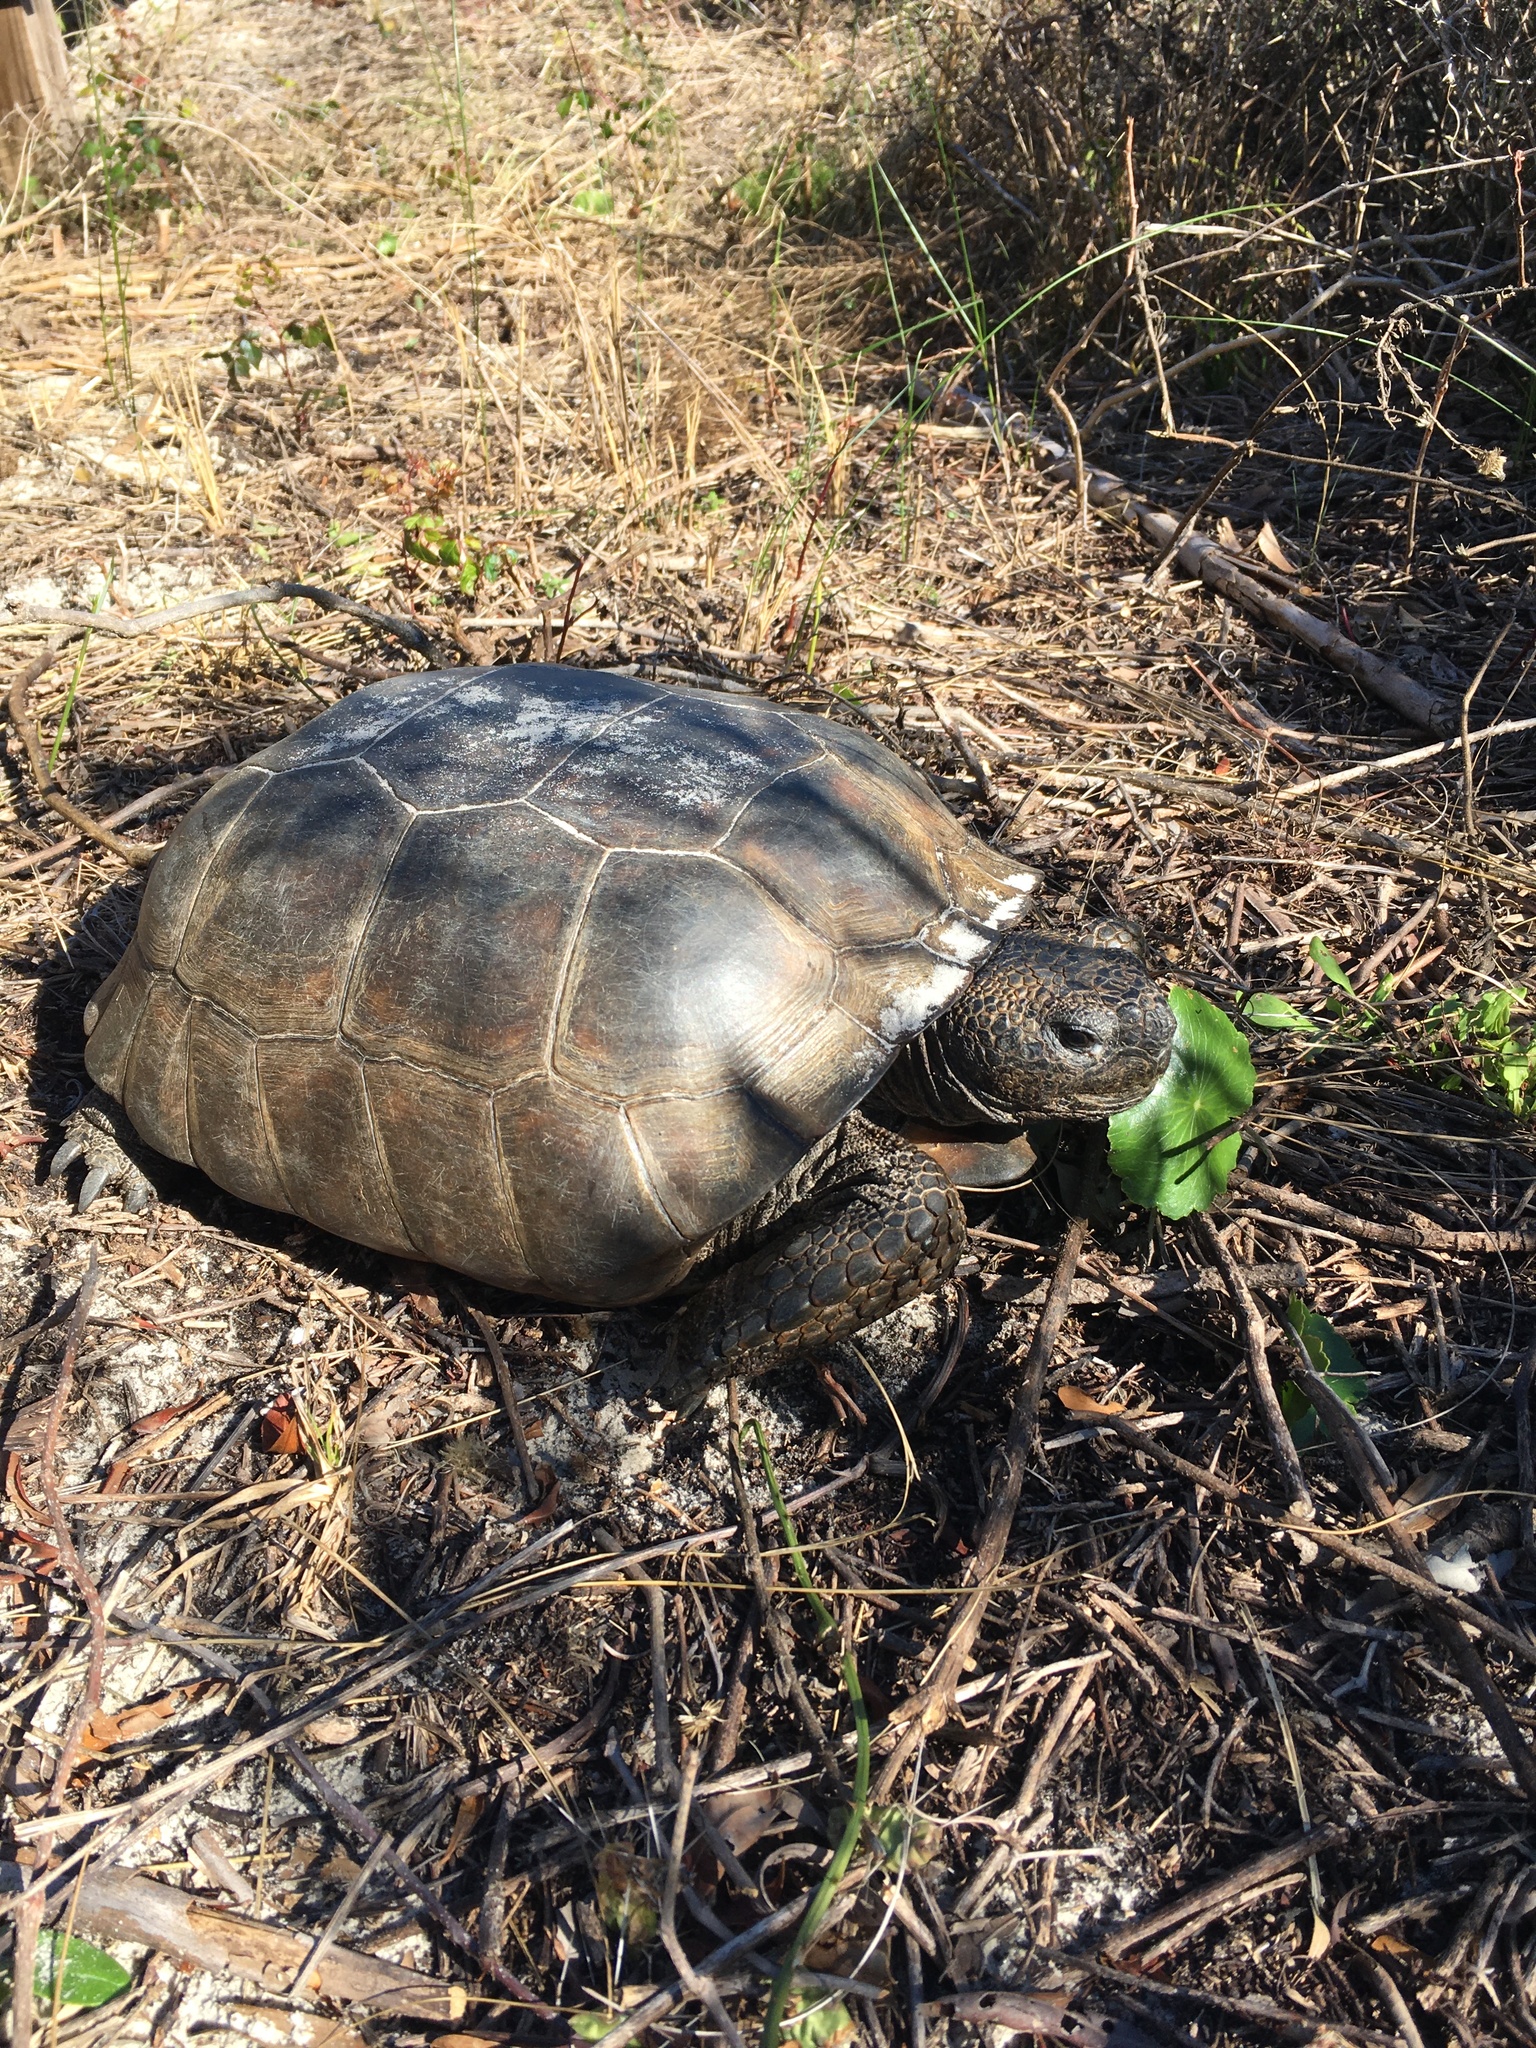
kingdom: Animalia
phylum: Chordata
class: Testudines
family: Testudinidae
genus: Gopherus
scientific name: Gopherus polyphemus
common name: Florida gopher tortoise
